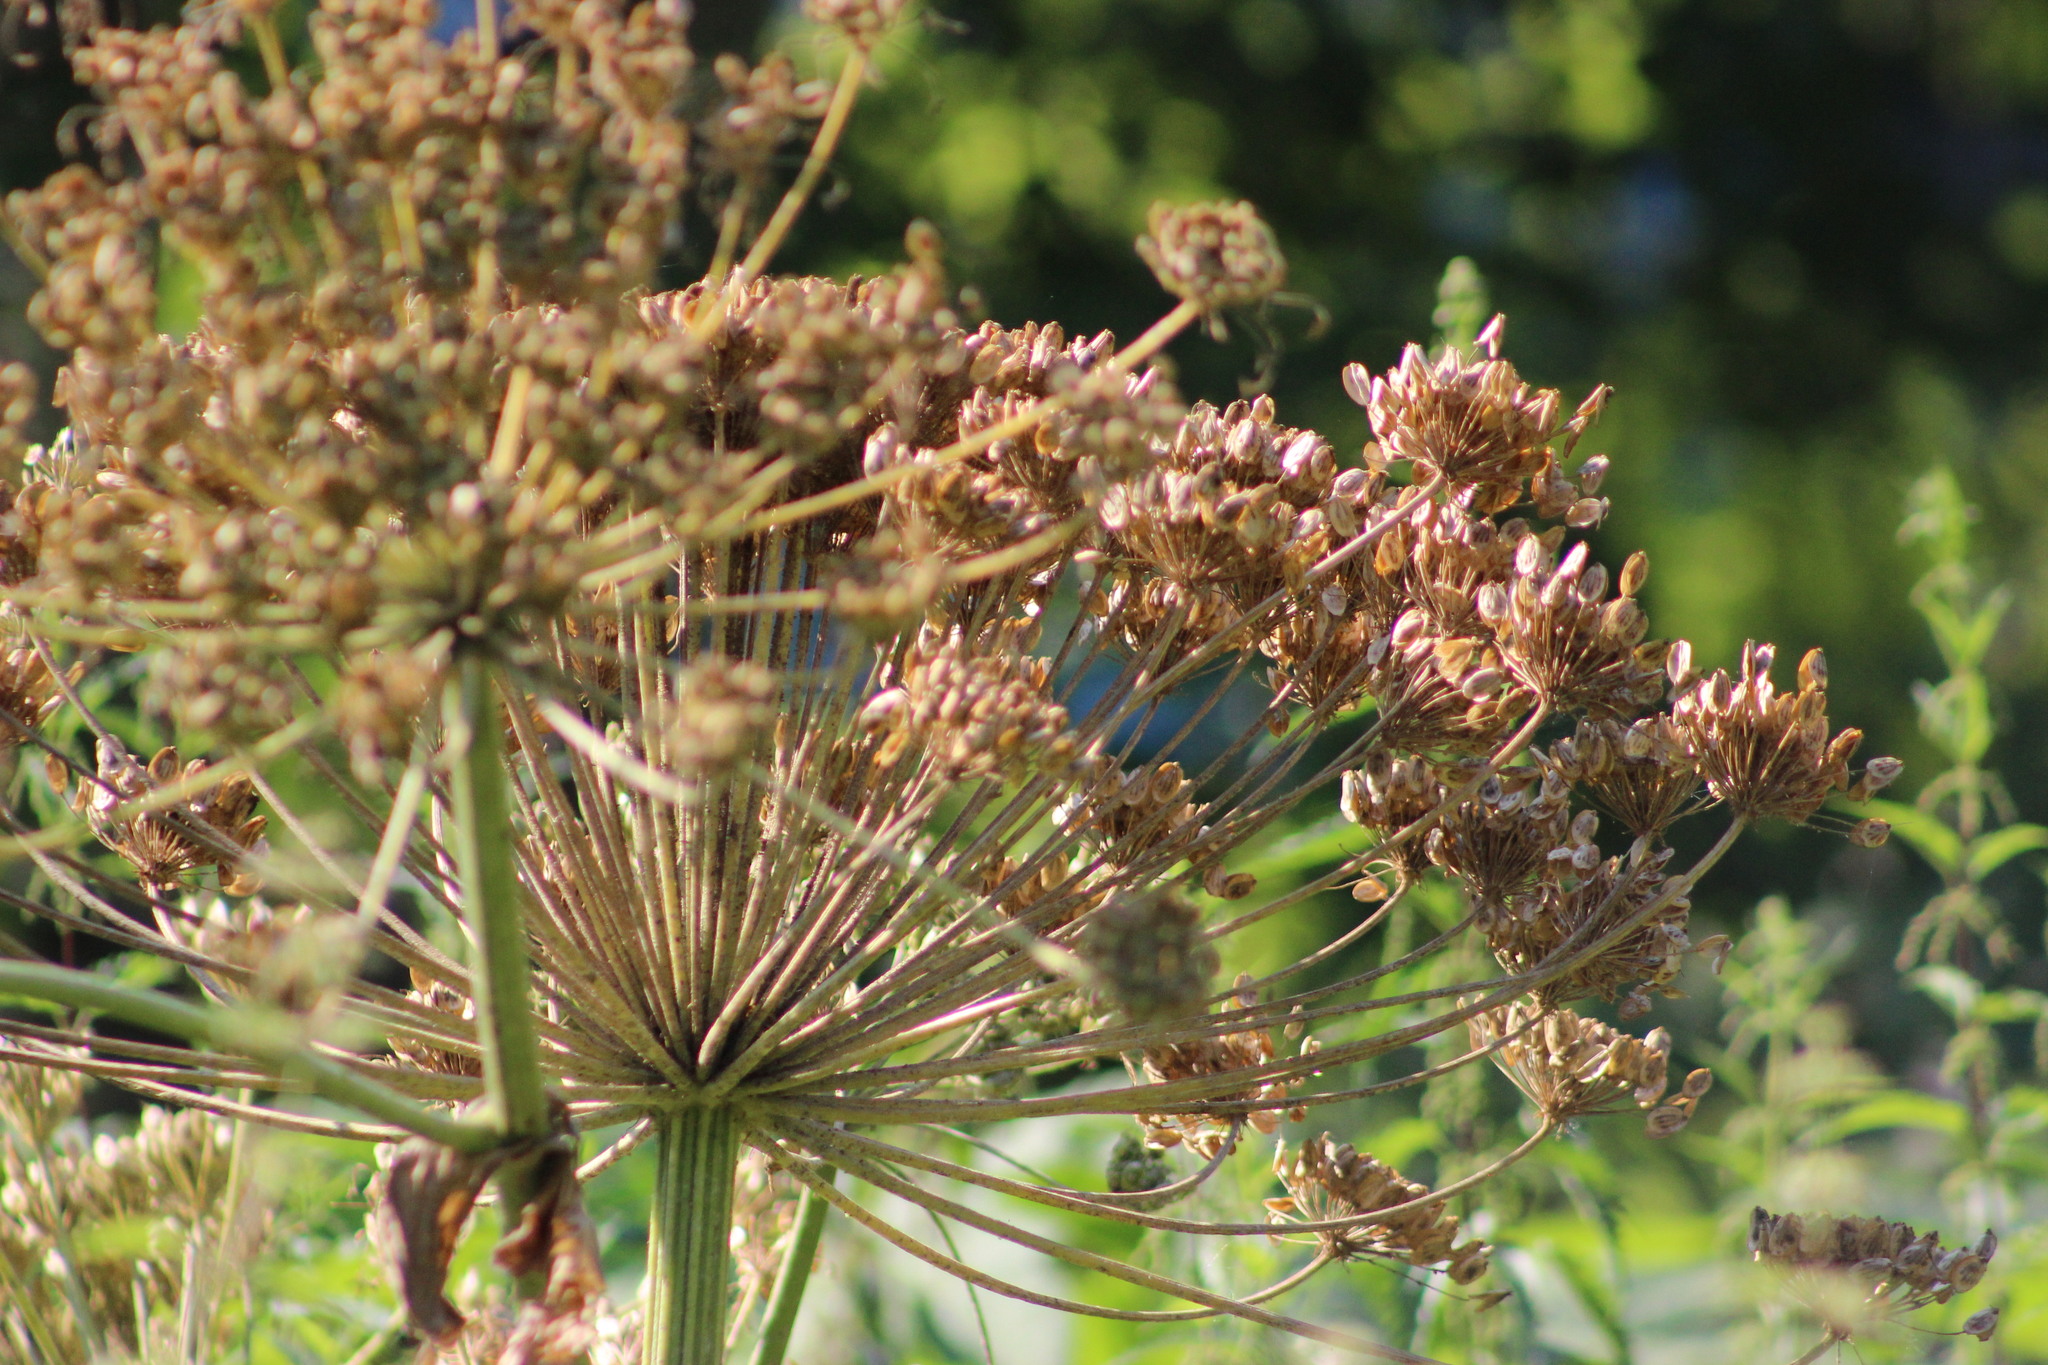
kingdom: Plantae
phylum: Tracheophyta
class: Magnoliopsida
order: Apiales
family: Apiaceae
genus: Heracleum
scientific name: Heracleum sosnowskyi
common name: Sosnowsky's hogweed
